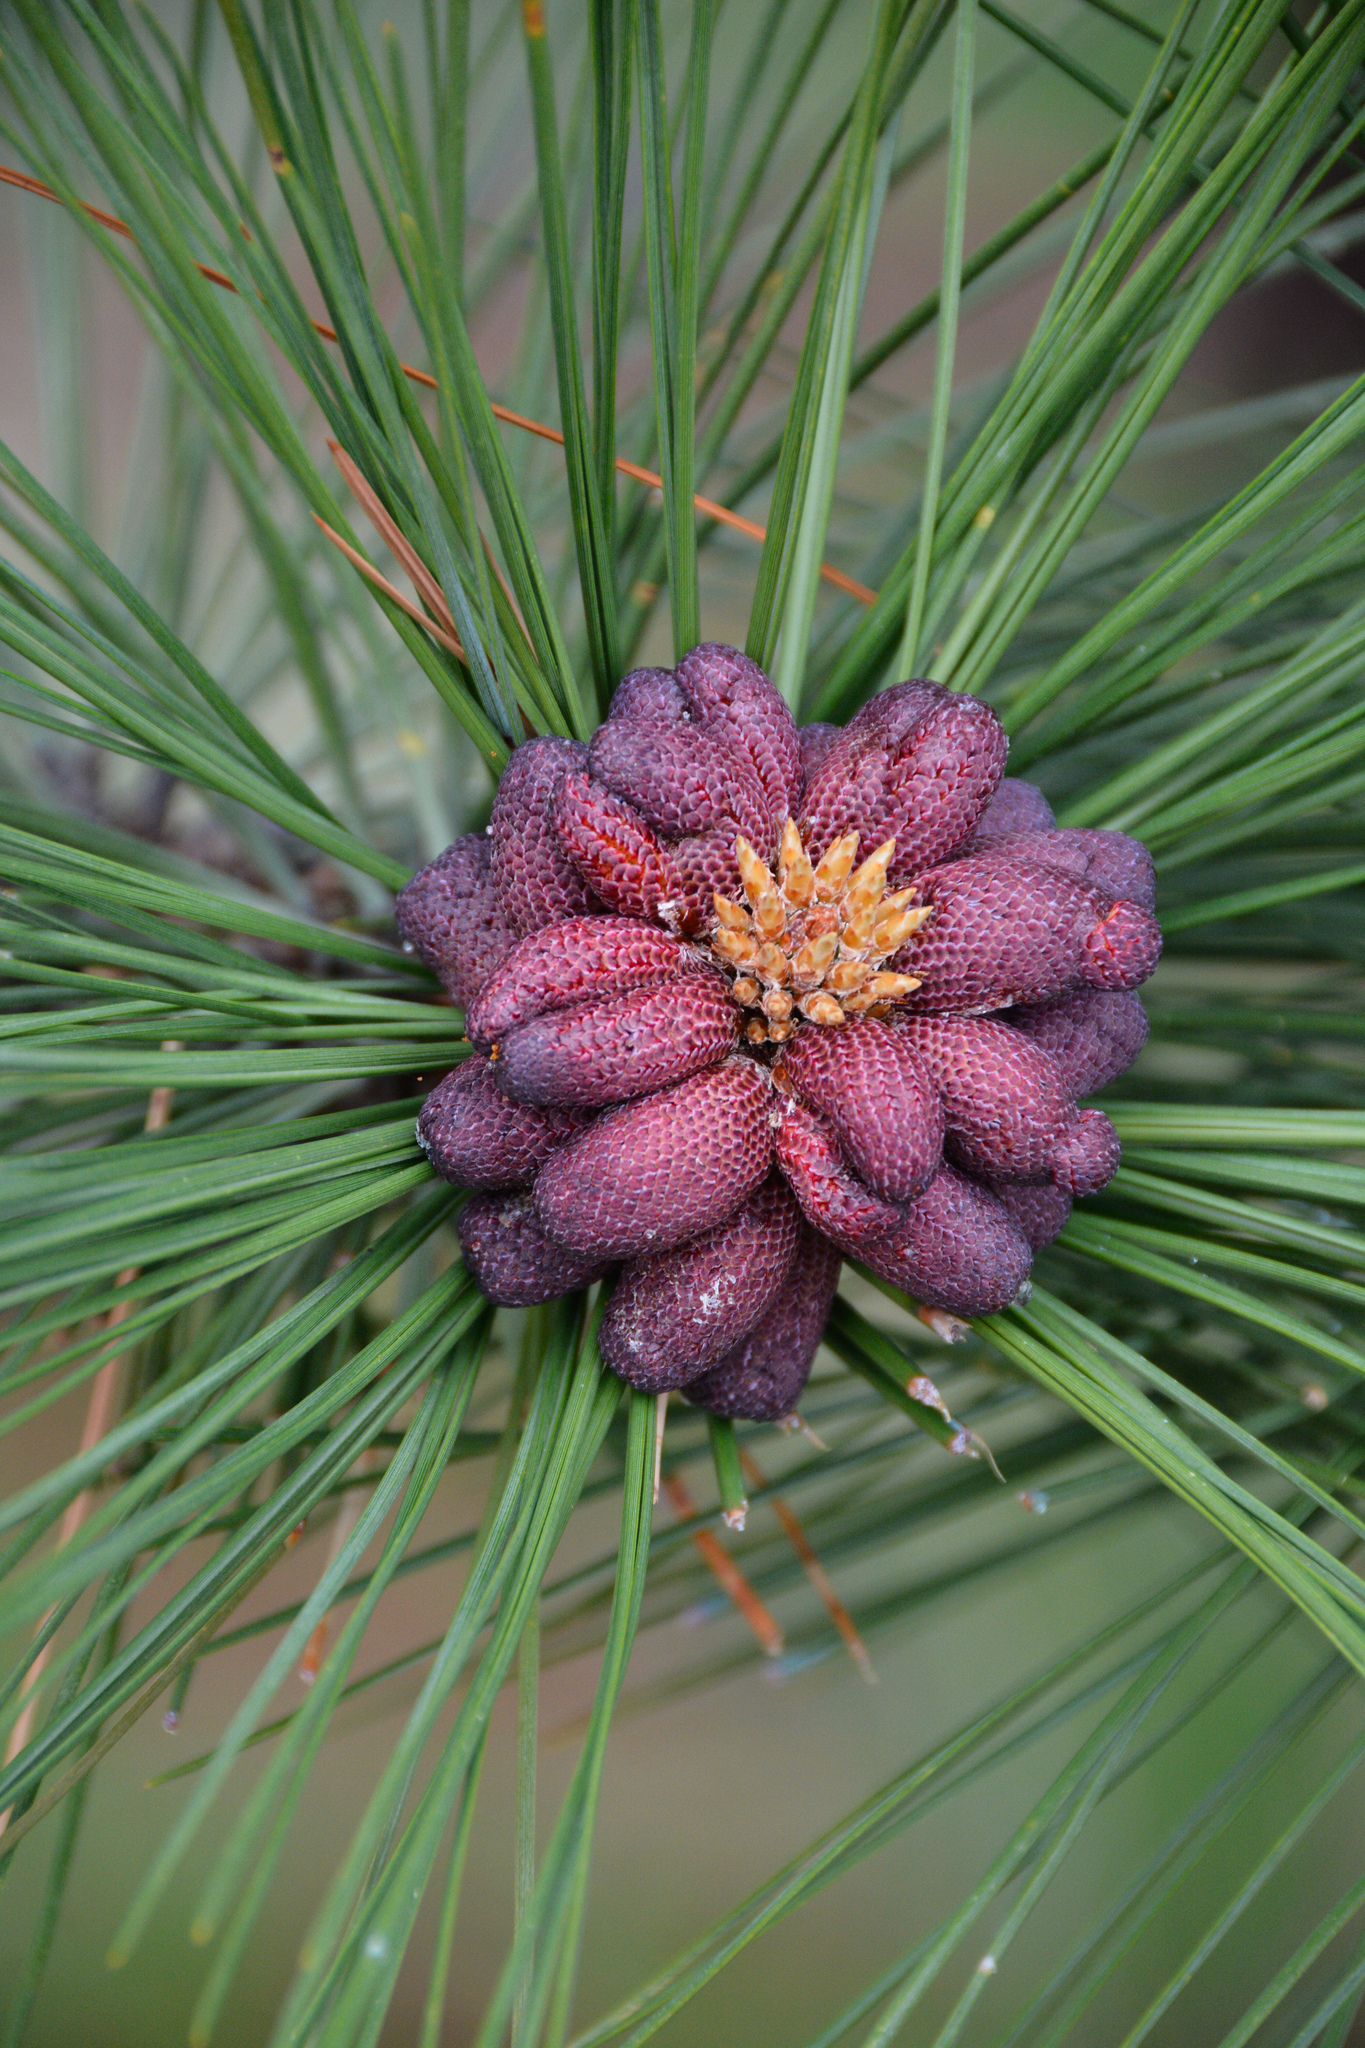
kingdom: Plantae
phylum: Tracheophyta
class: Pinopsida
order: Pinales
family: Pinaceae
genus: Pinus
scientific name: Pinus ponderosa
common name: Western yellow-pine
